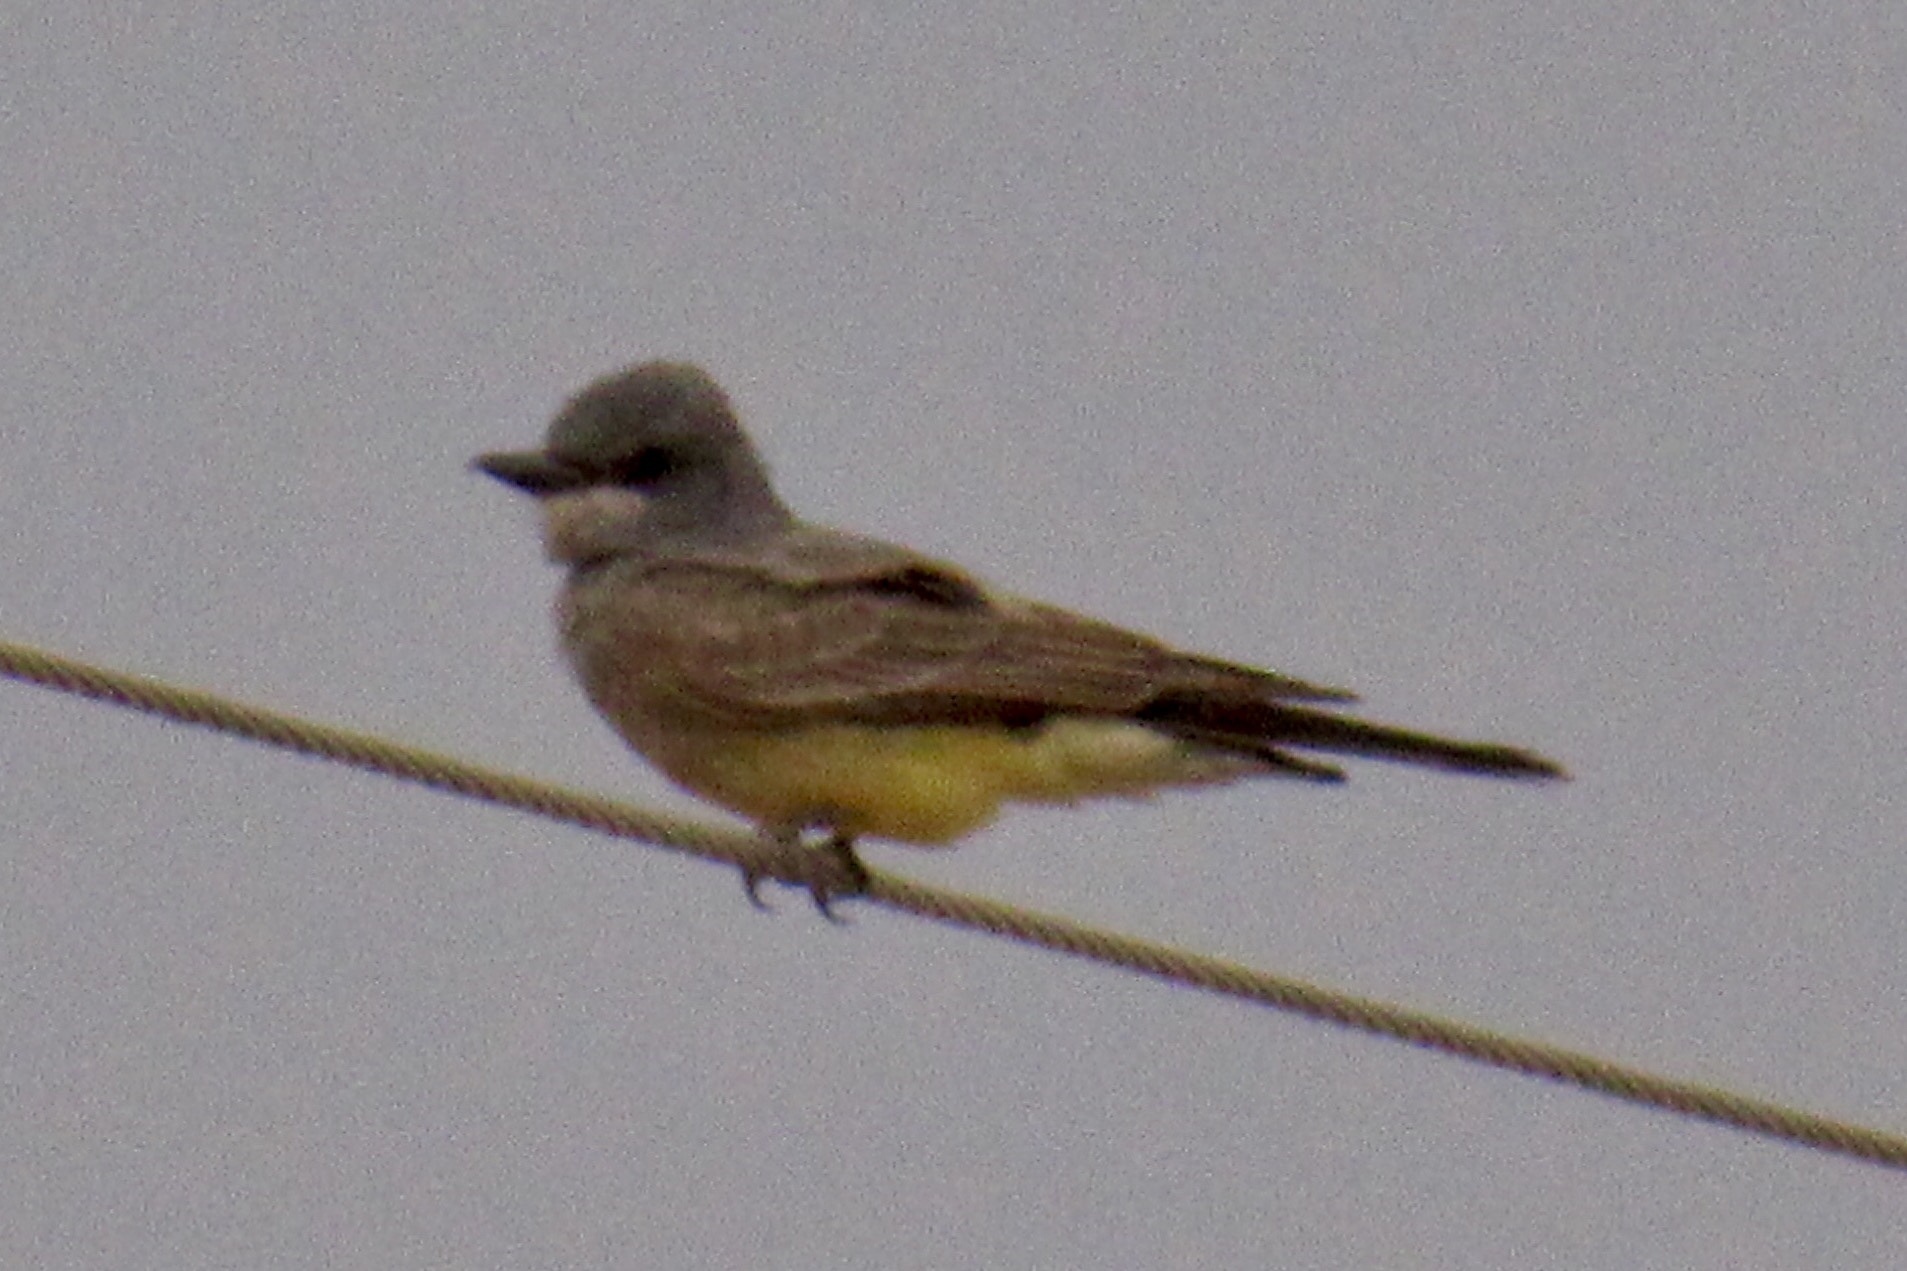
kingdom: Animalia
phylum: Chordata
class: Aves
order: Passeriformes
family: Tyrannidae
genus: Tyrannus
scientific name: Tyrannus vociferans
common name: Cassin's kingbird
